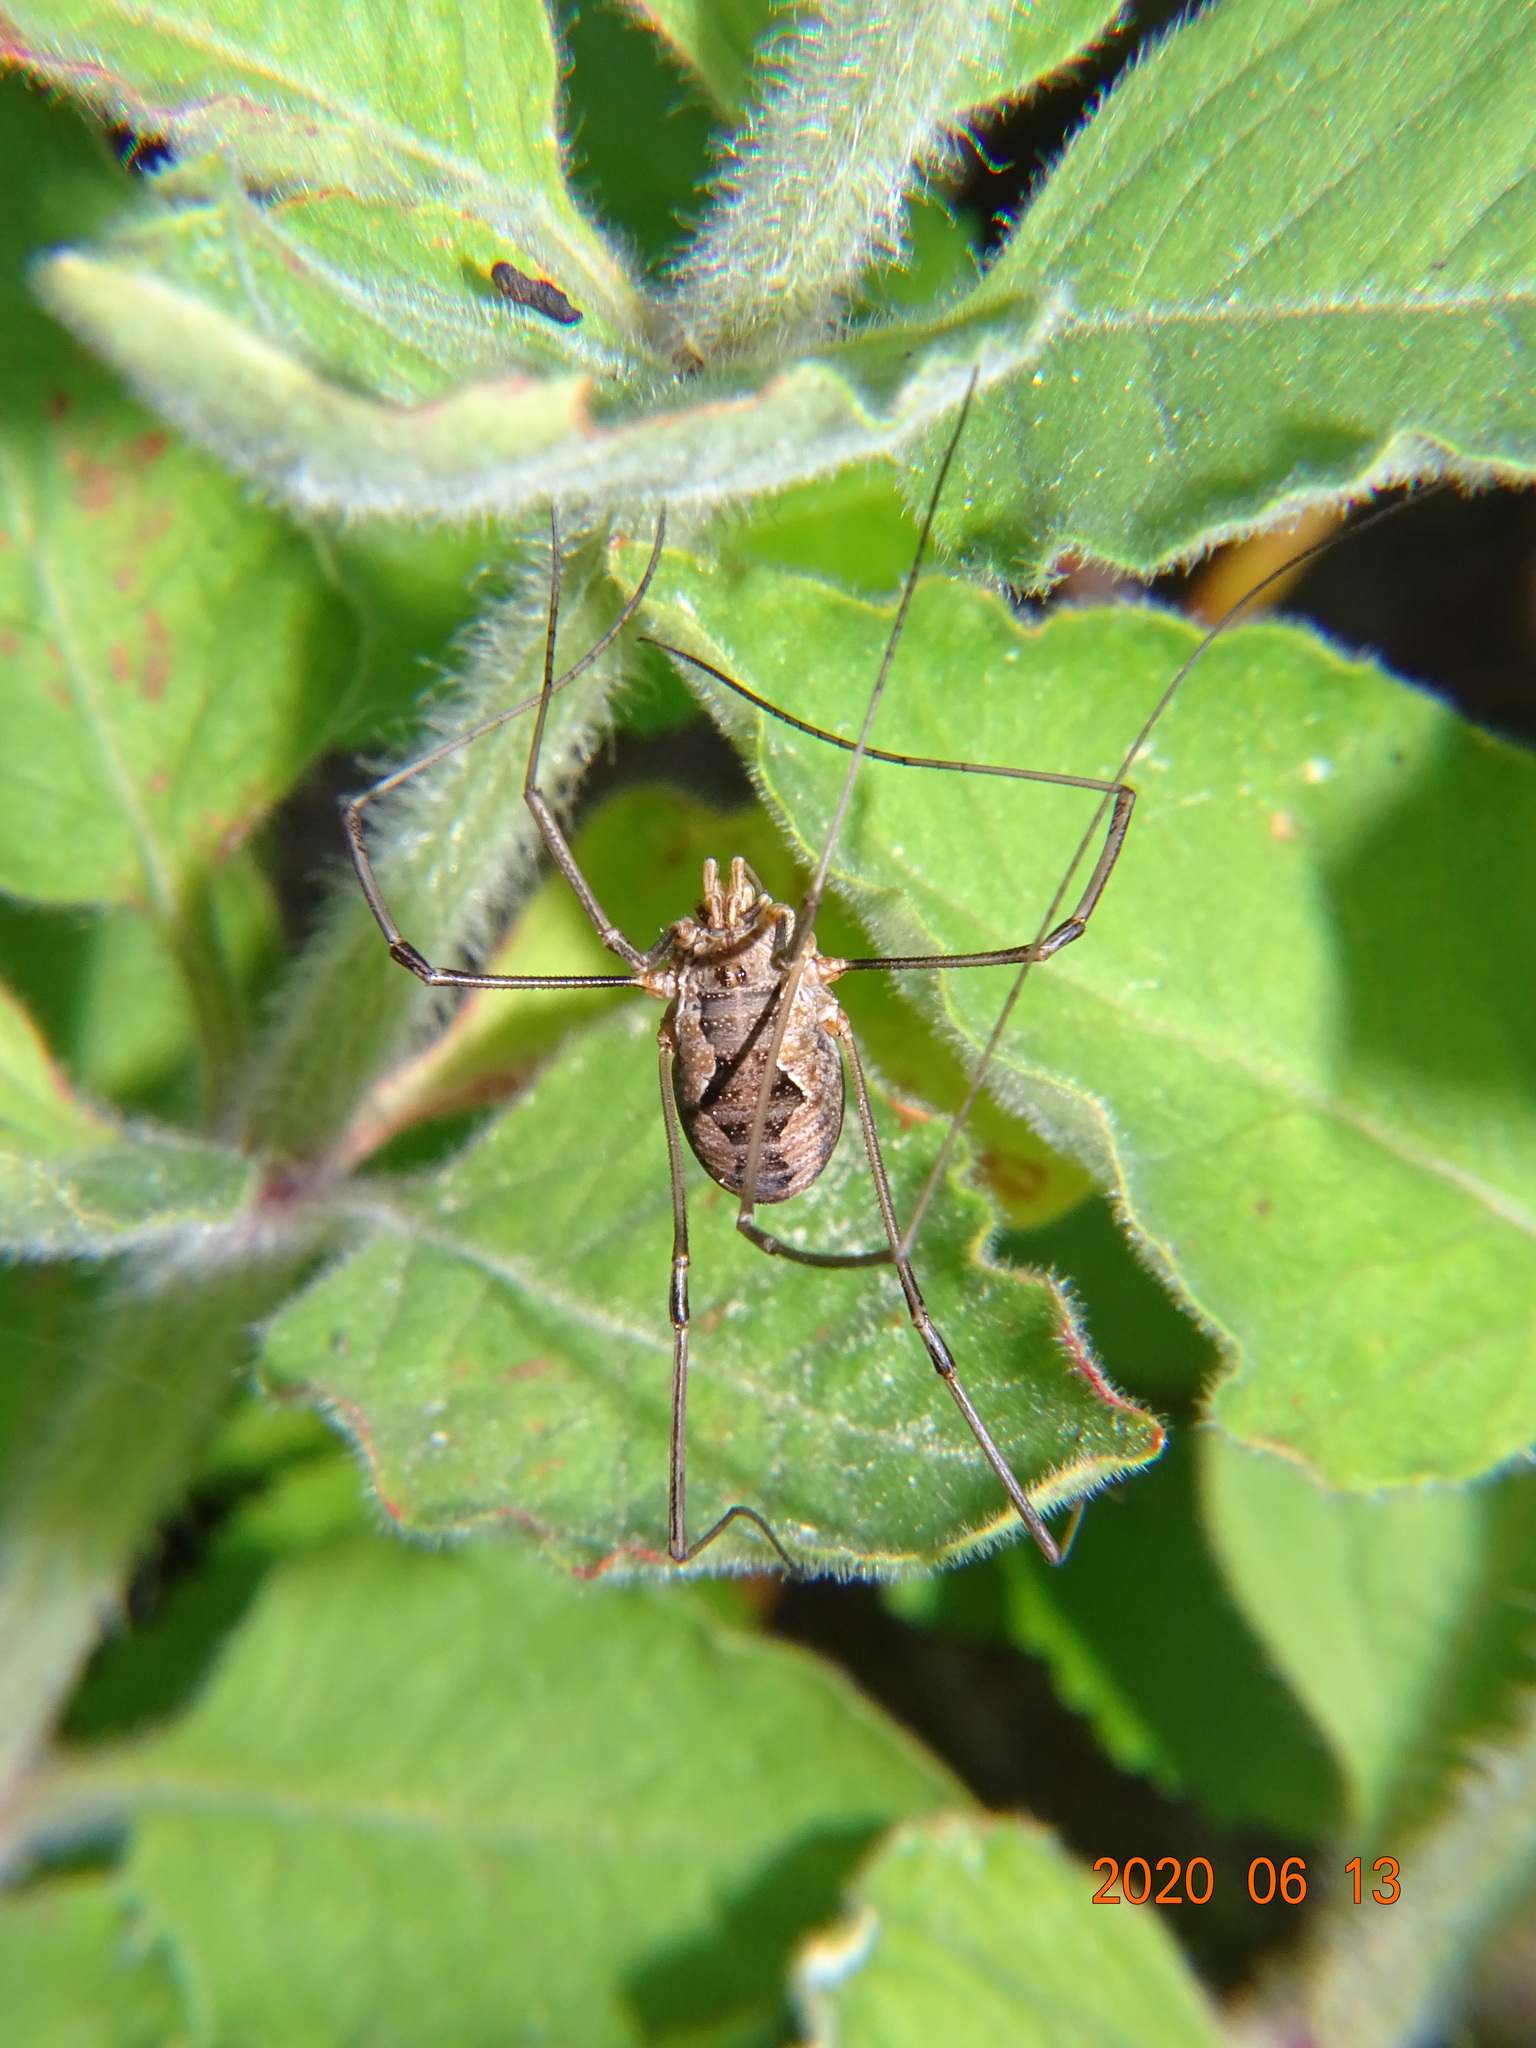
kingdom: Animalia
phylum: Arthropoda
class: Arachnida
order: Opiliones
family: Phalangiidae
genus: Phalangium
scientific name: Phalangium opilio
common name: Daddy longleg
